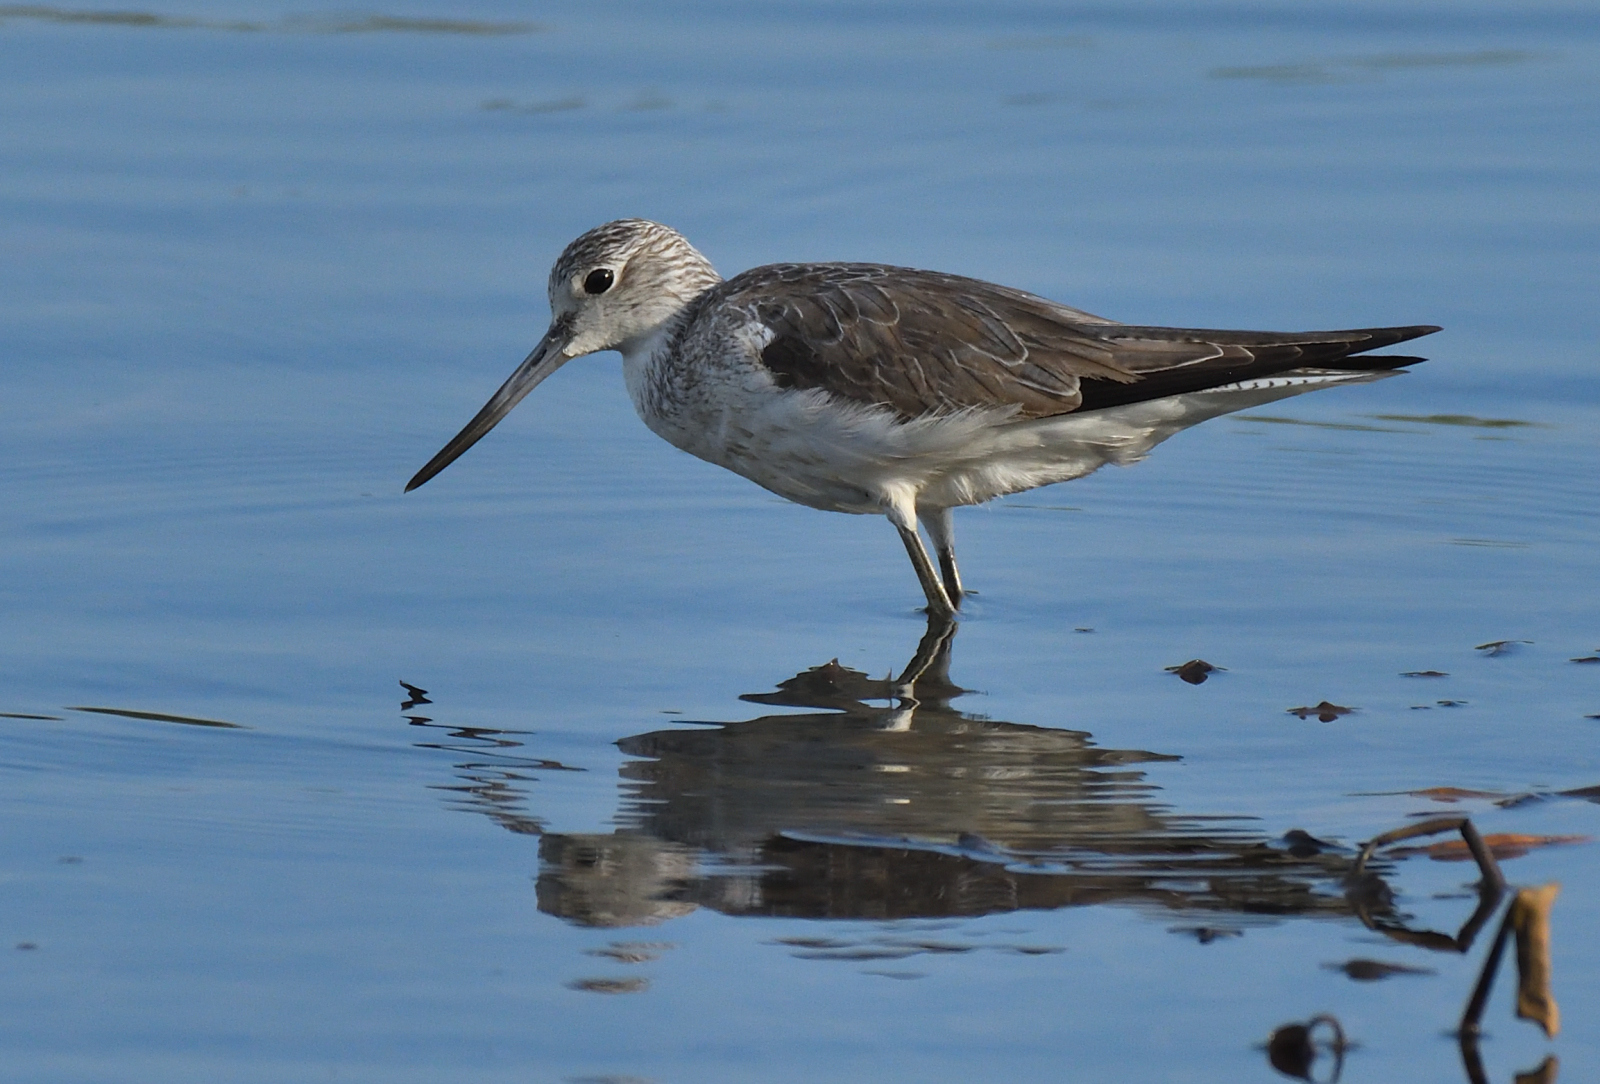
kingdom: Animalia
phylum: Chordata
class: Aves
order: Charadriiformes
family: Scolopacidae
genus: Tringa
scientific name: Tringa nebularia
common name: Common greenshank
